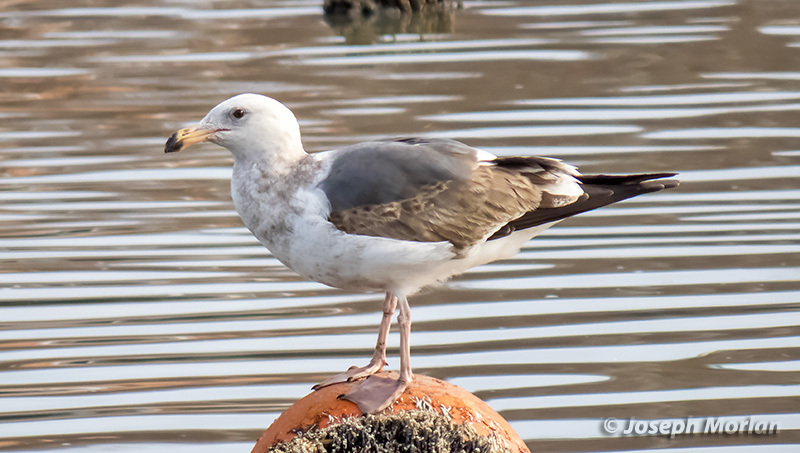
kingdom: Animalia
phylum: Chordata
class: Aves
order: Charadriiformes
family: Laridae
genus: Larus
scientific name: Larus occidentalis
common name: Western gull
